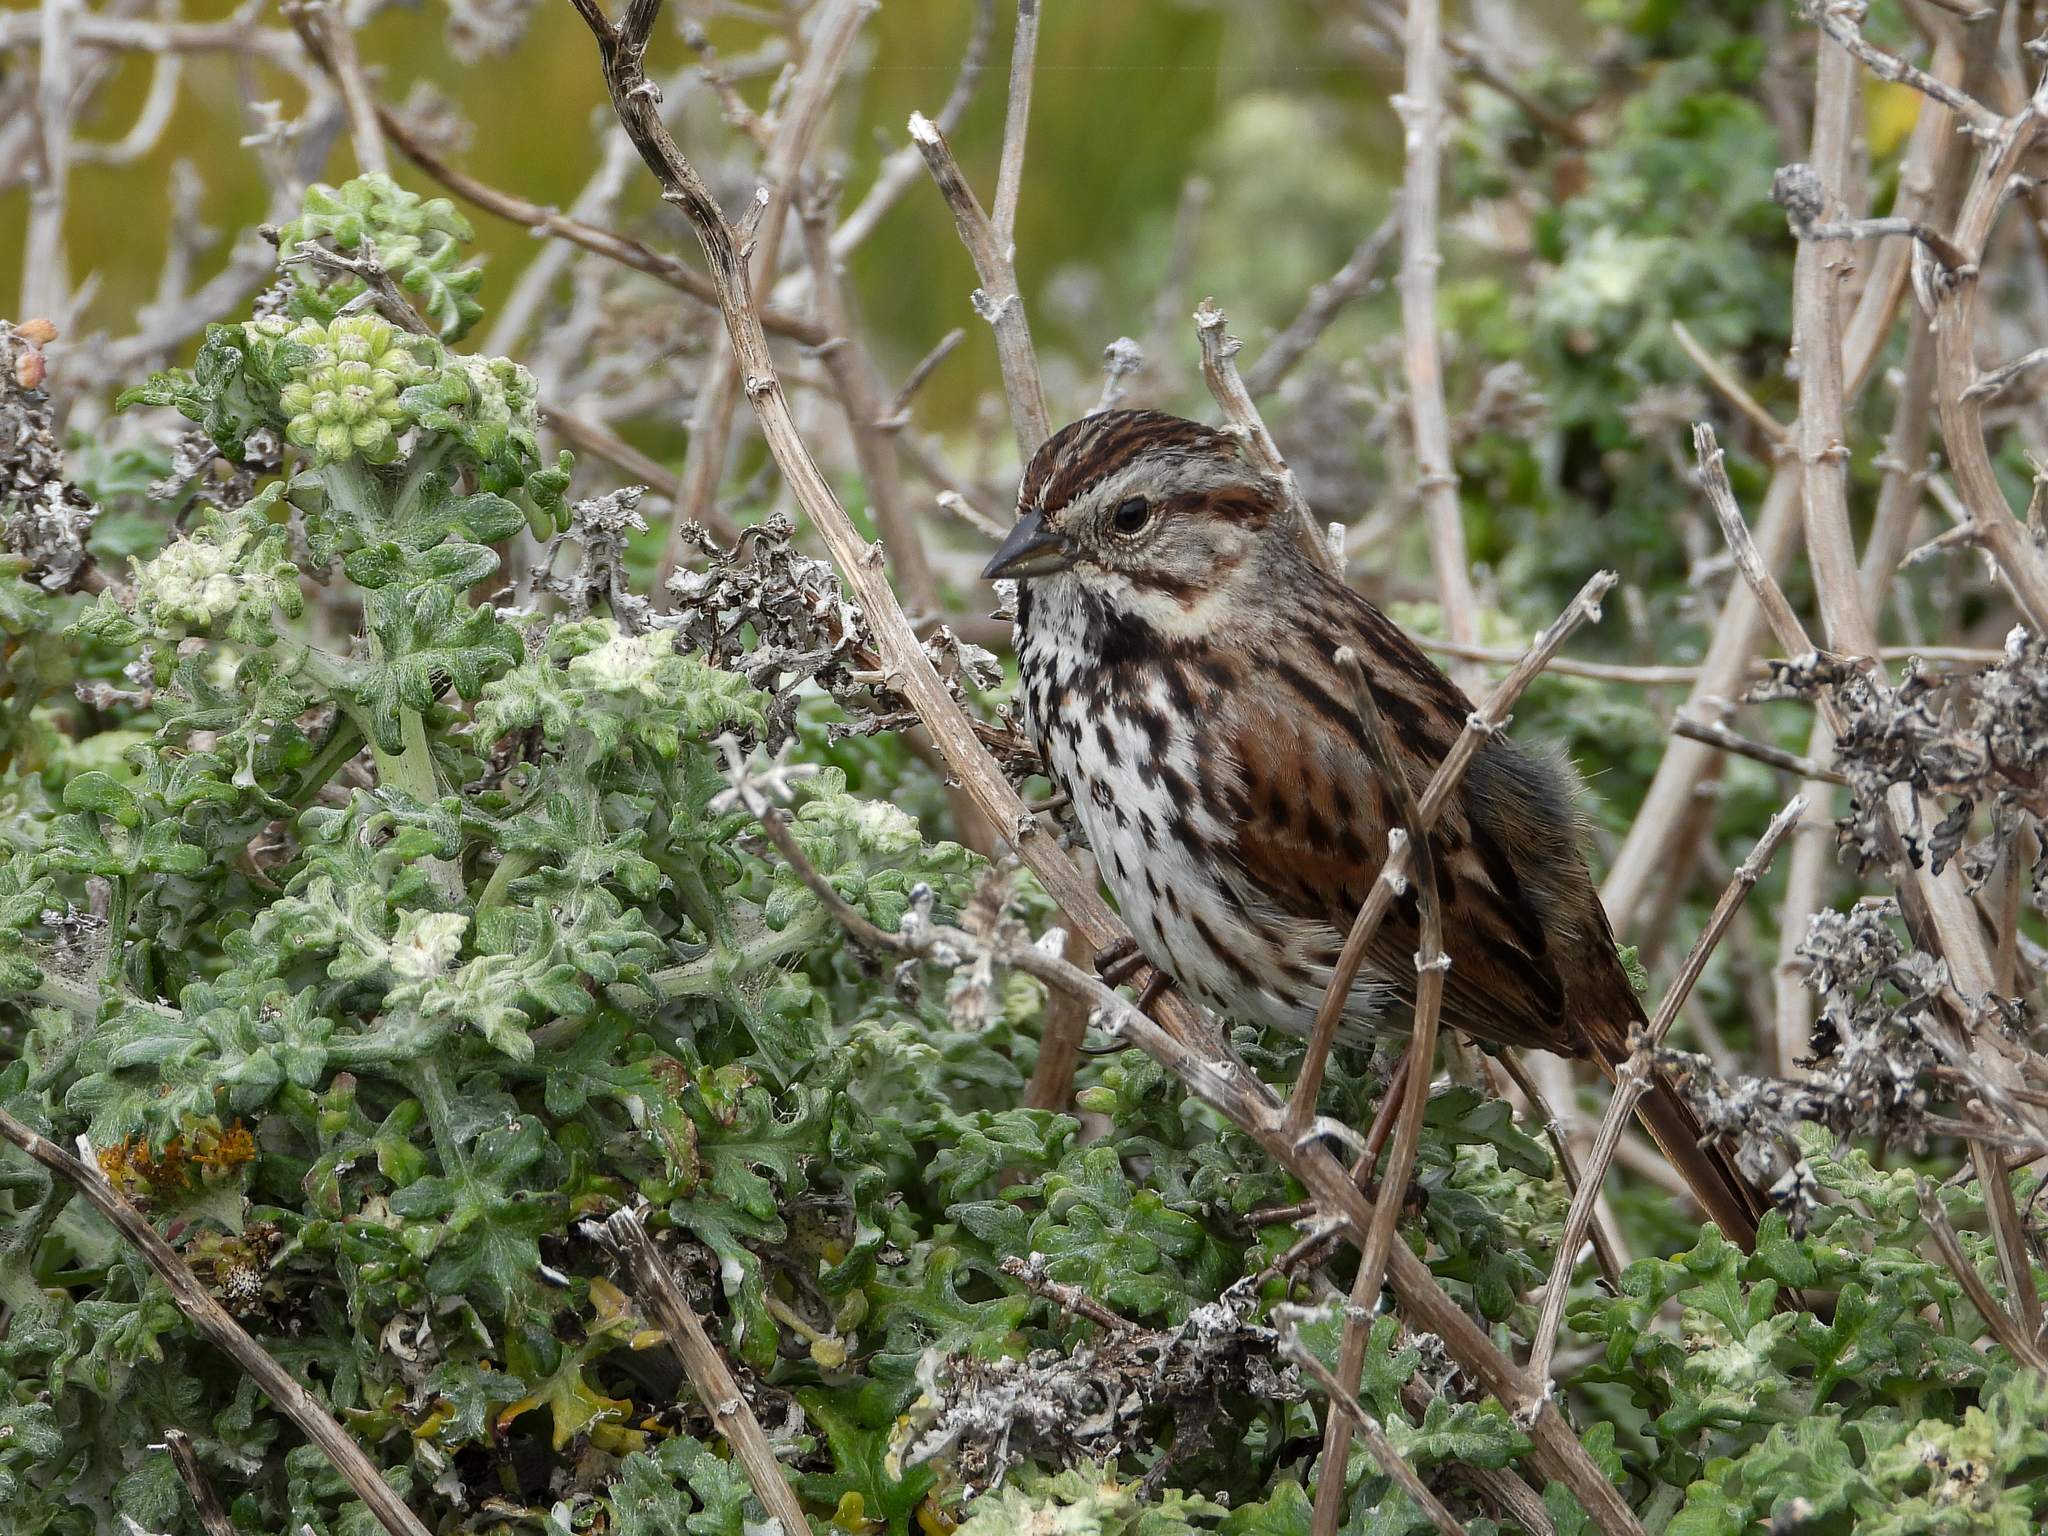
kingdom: Animalia
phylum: Chordata
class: Aves
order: Passeriformes
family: Passerellidae
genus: Melospiza
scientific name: Melospiza melodia
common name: Song sparrow
